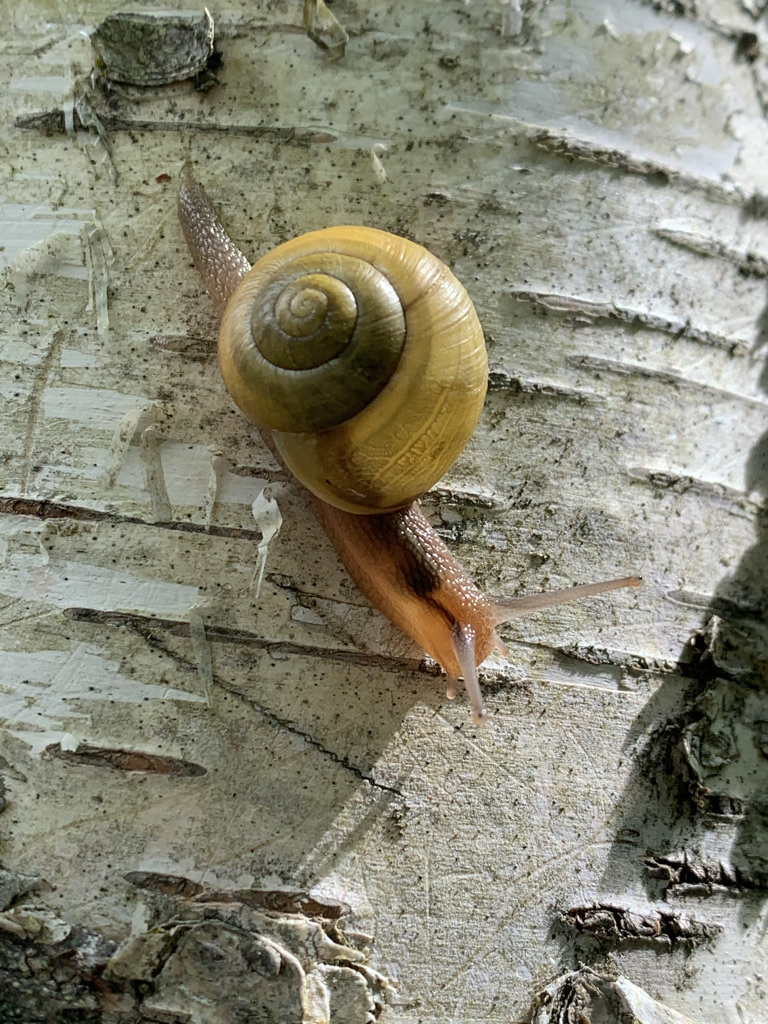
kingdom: Animalia
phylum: Mollusca
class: Gastropoda
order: Stylommatophora
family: Helicidae
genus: Cepaea
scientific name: Cepaea
